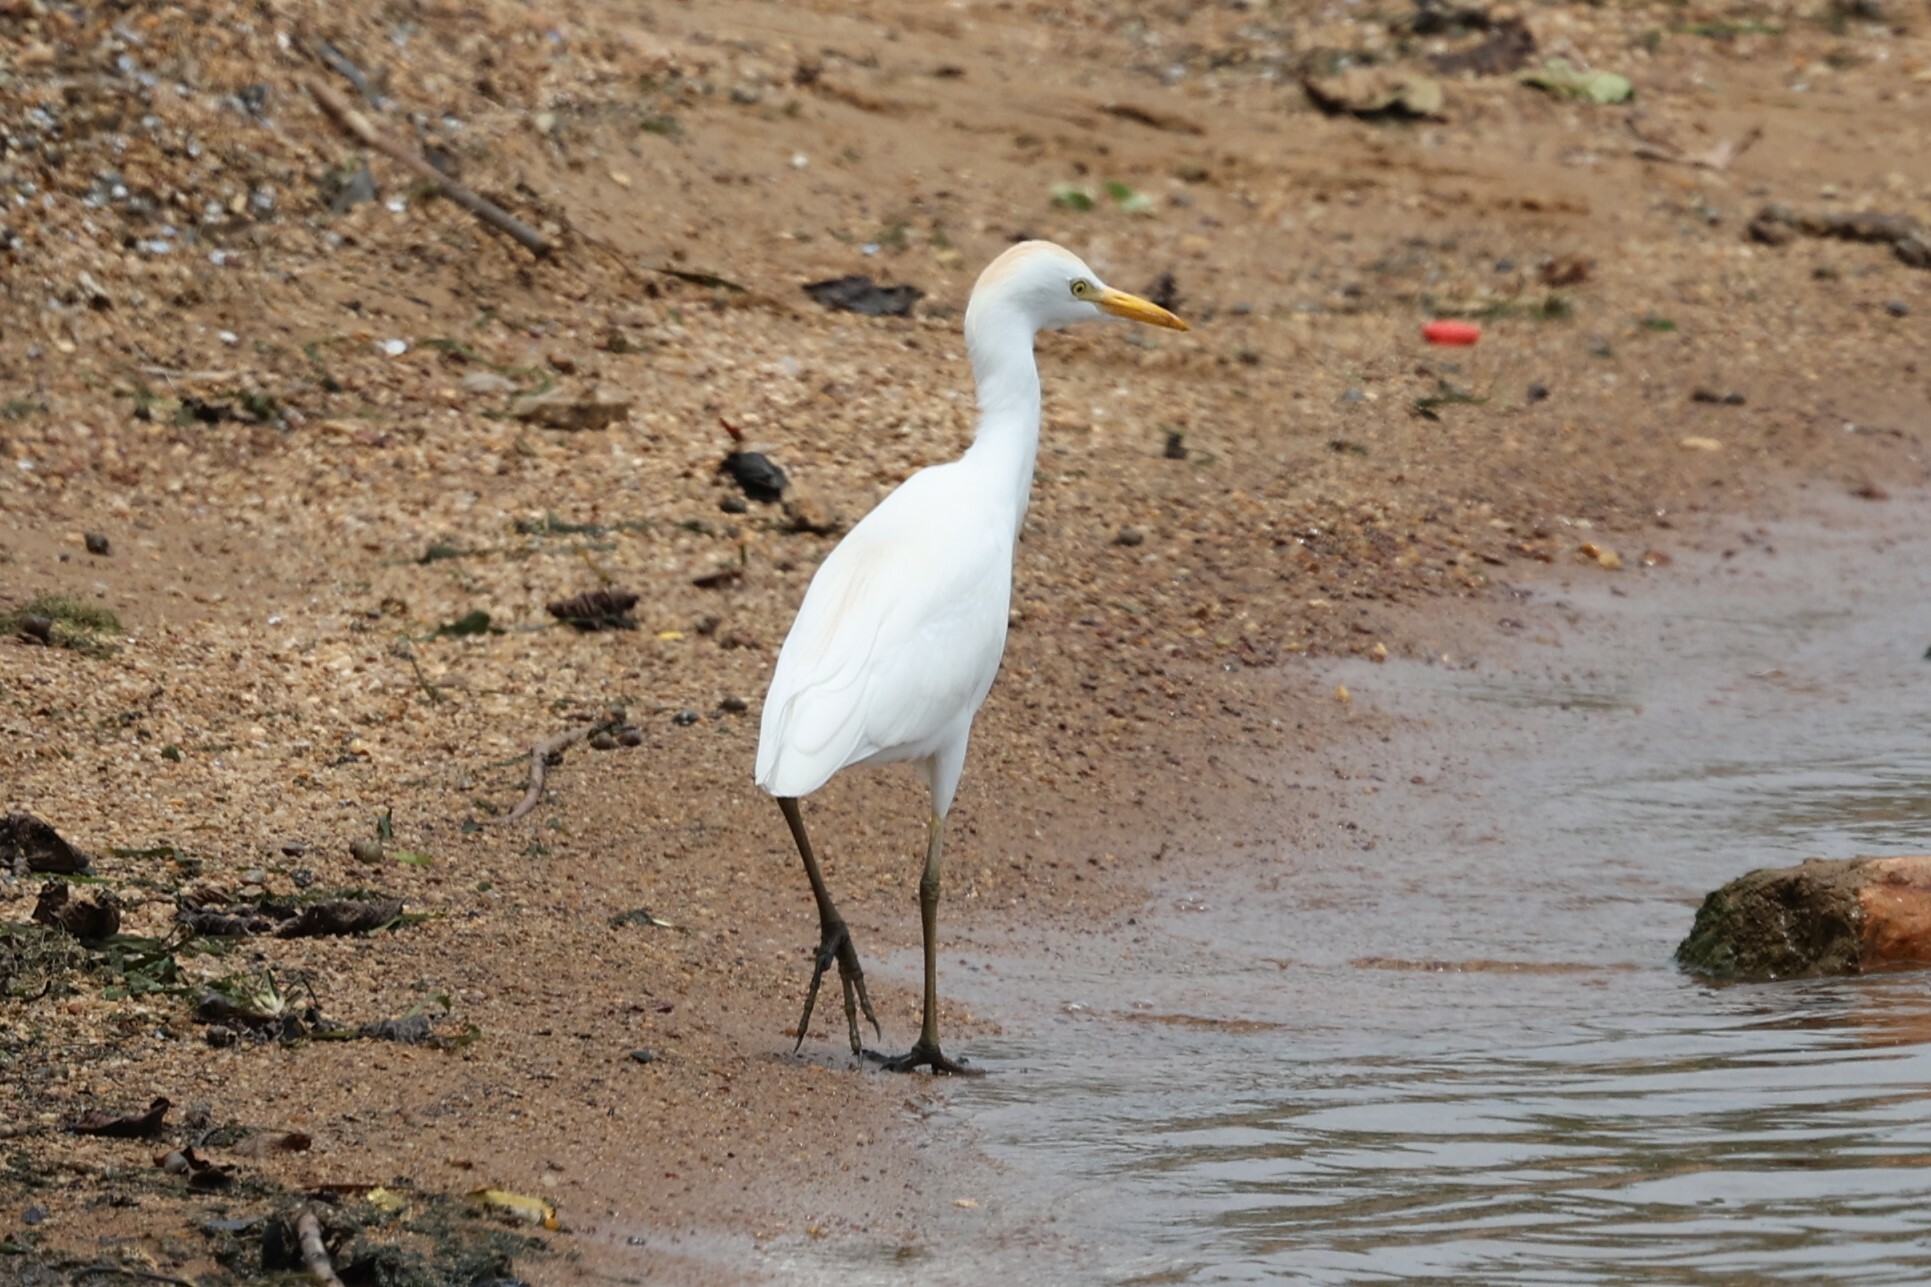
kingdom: Animalia
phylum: Chordata
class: Aves
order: Pelecaniformes
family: Ardeidae
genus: Bubulcus
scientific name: Bubulcus ibis
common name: Cattle egret
